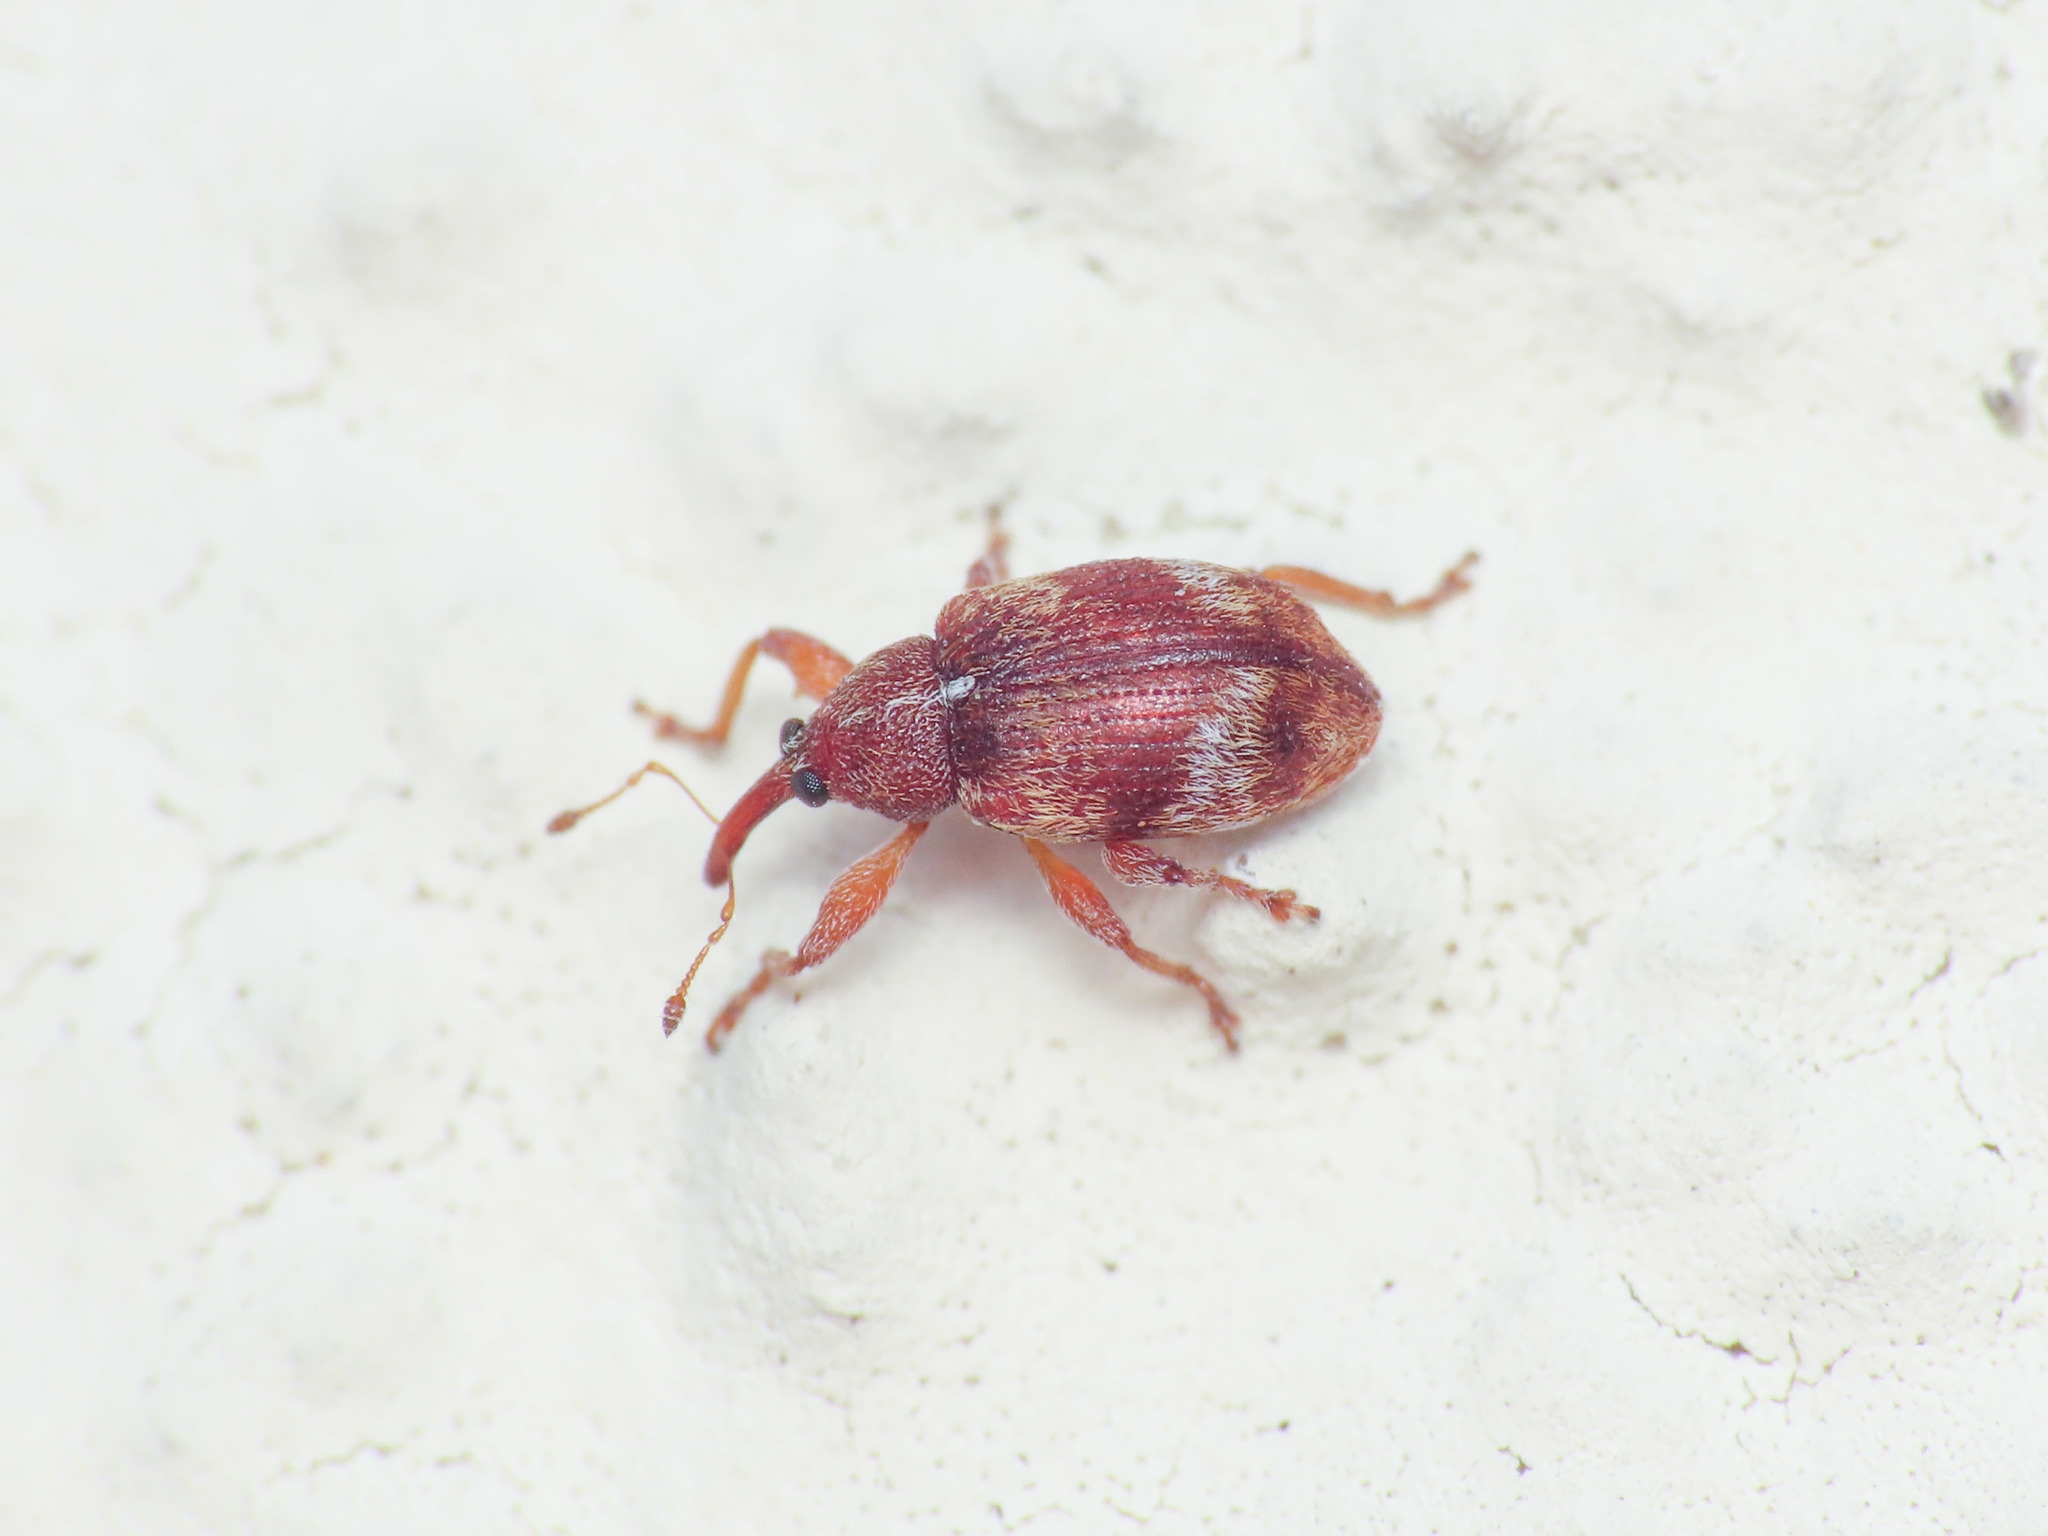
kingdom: Animalia
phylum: Arthropoda
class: Insecta
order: Coleoptera
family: Curculionidae
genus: Anthonomus
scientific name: Anthonomus pedicularius
